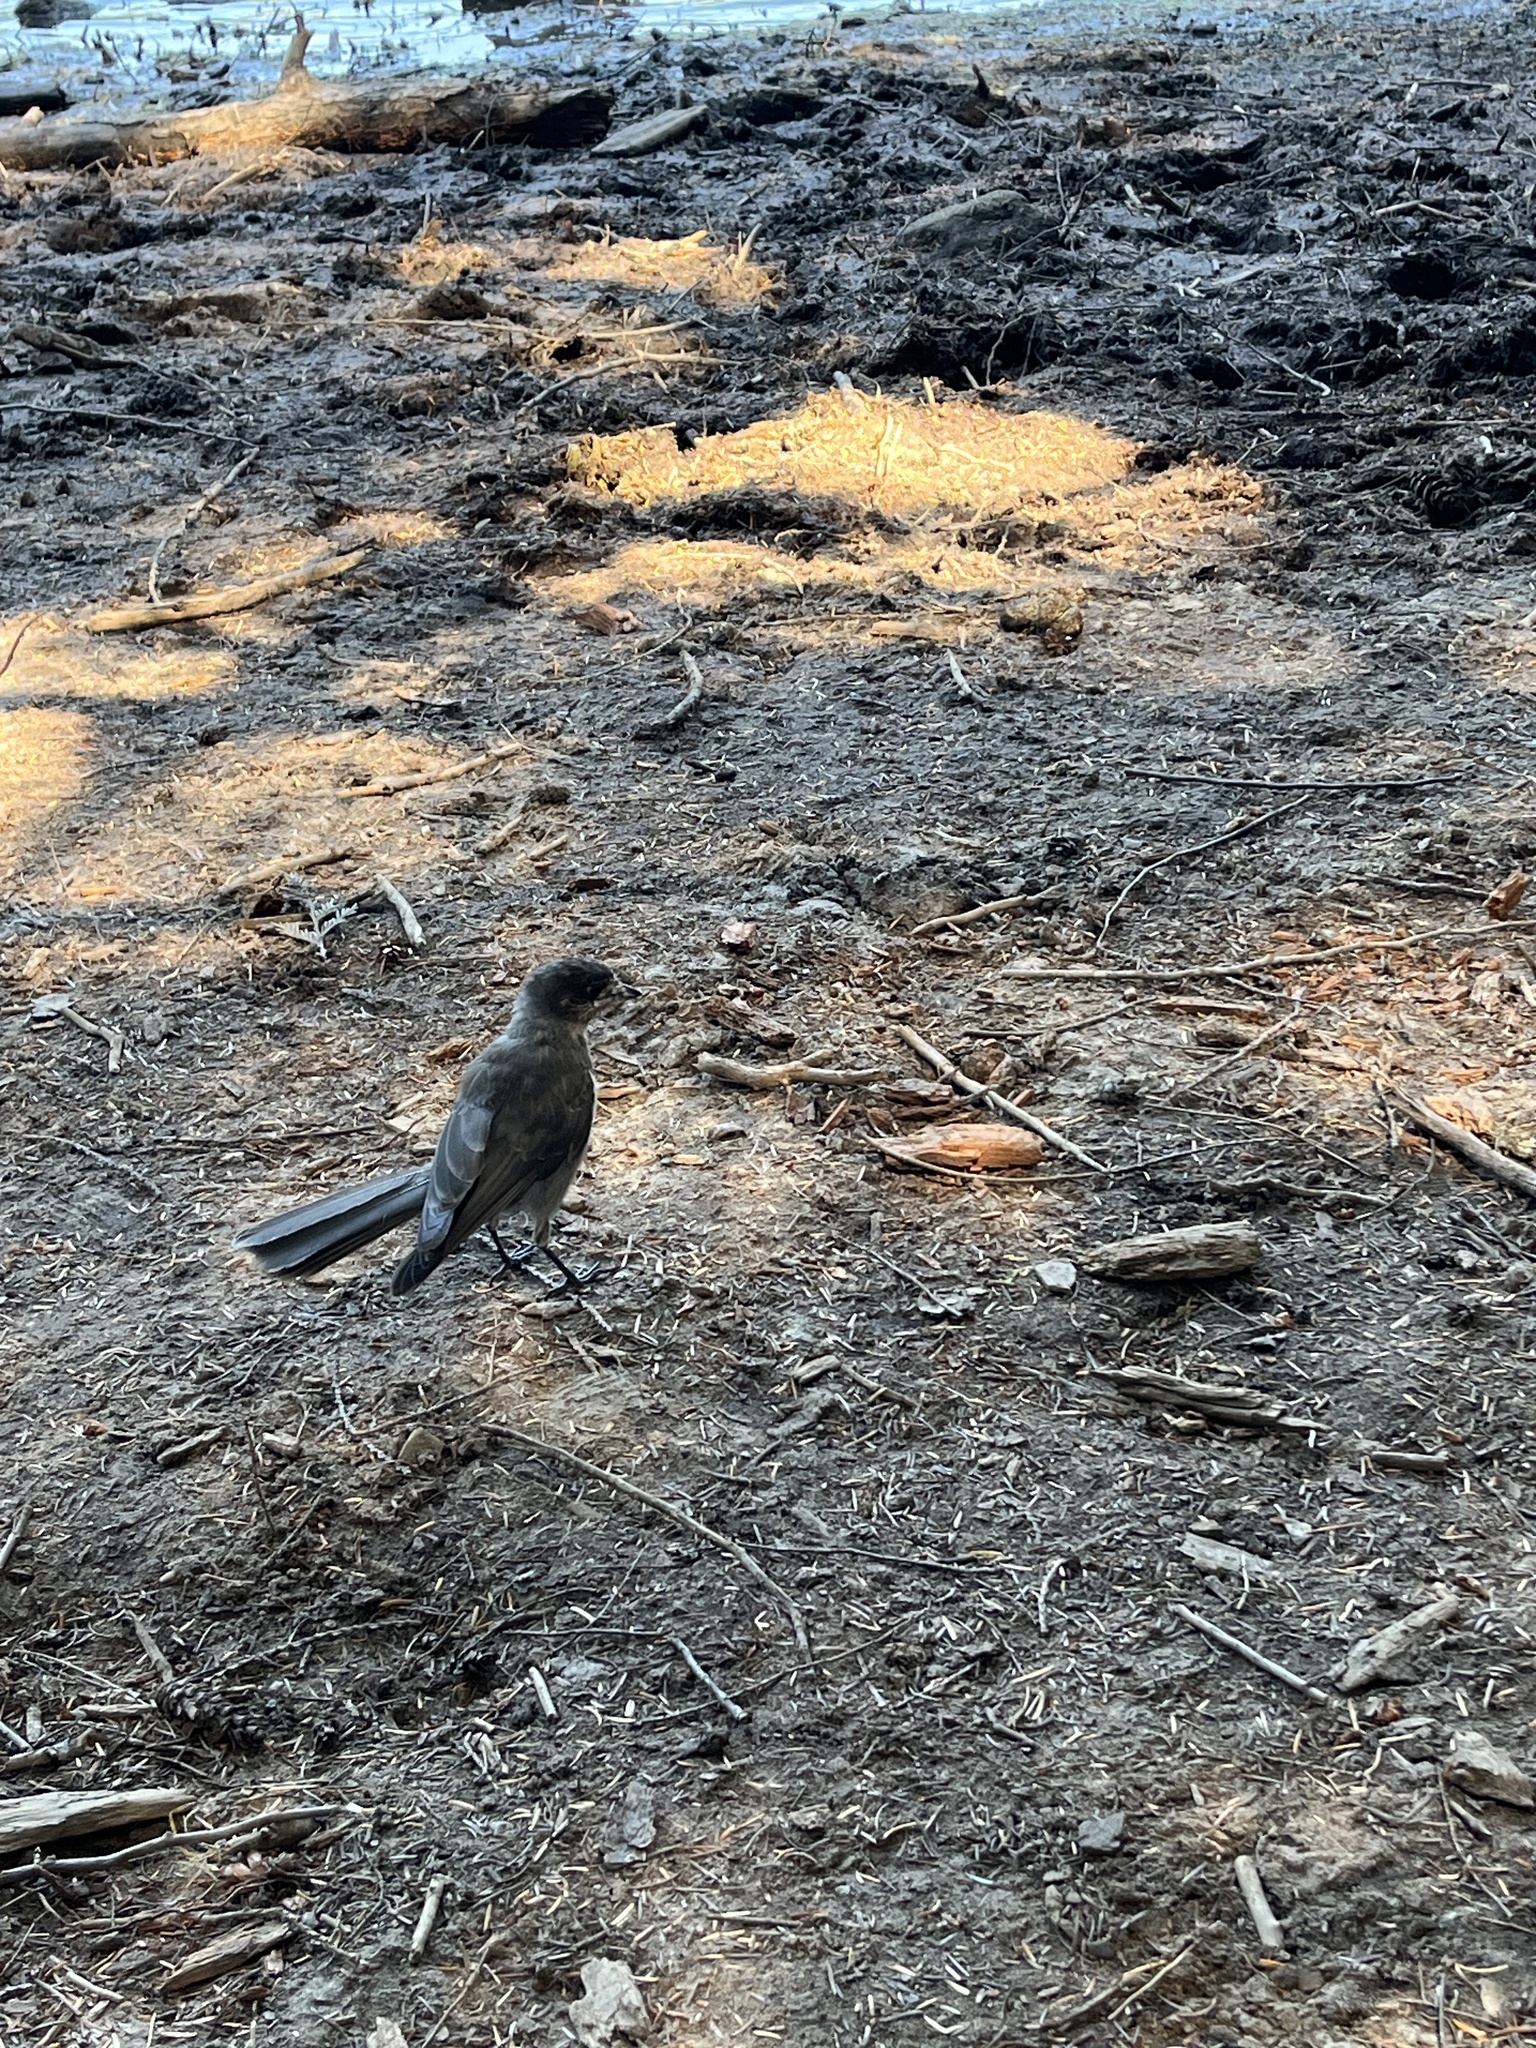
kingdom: Animalia
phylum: Chordata
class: Aves
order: Passeriformes
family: Corvidae
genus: Perisoreus
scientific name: Perisoreus canadensis
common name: Gray jay
